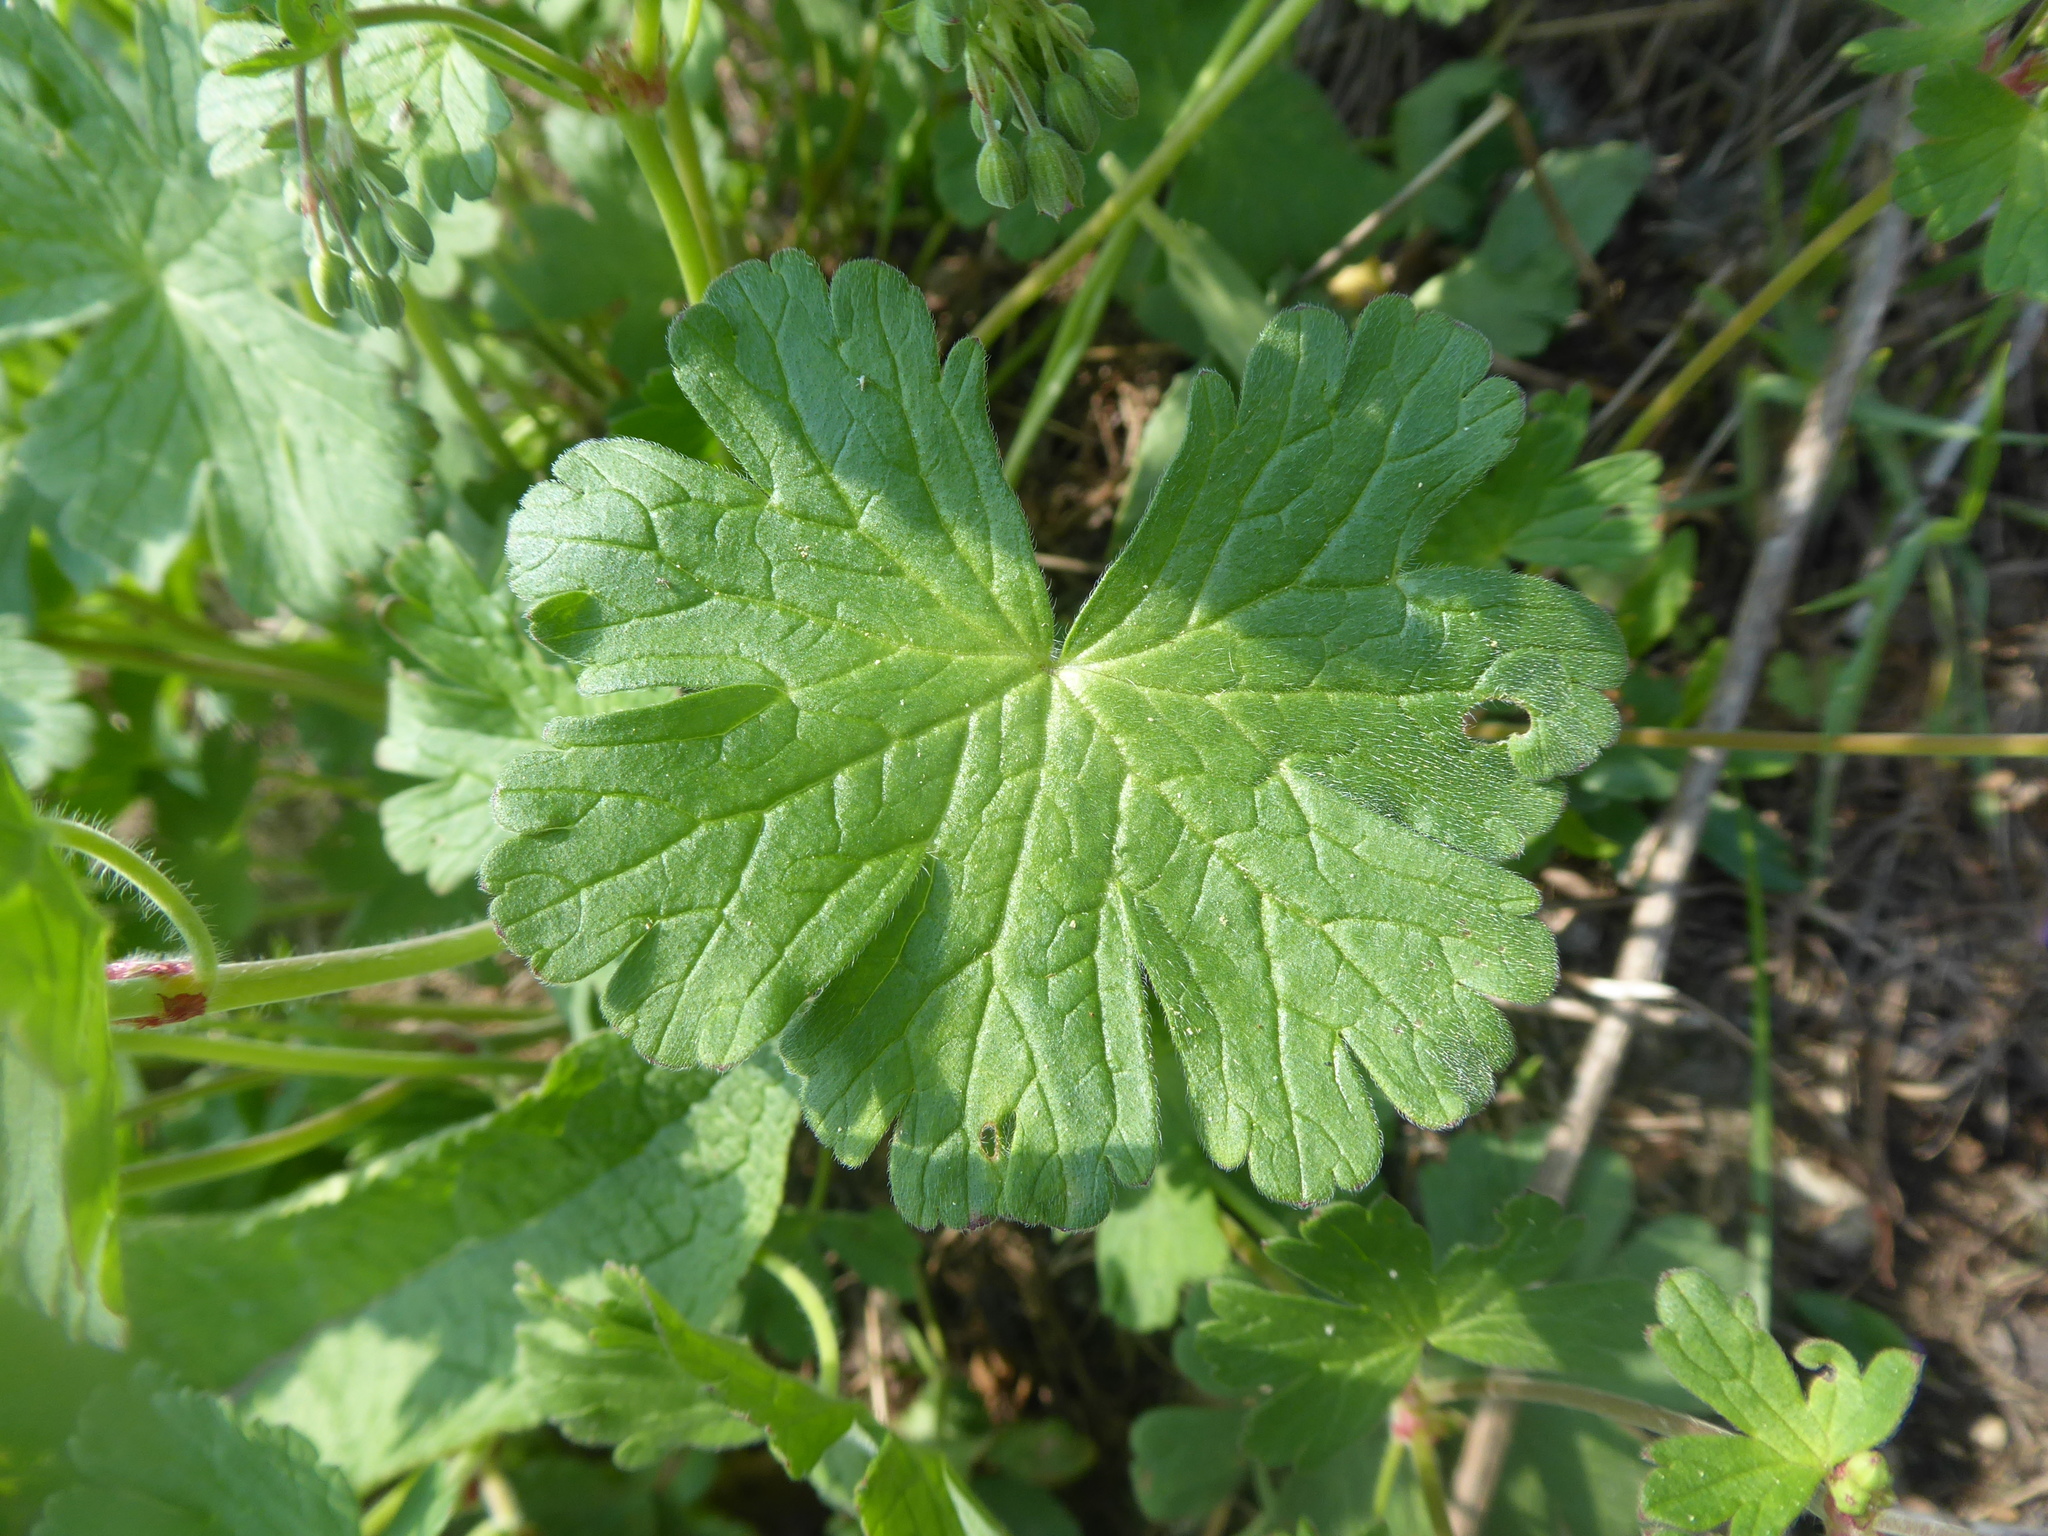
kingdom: Plantae
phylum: Tracheophyta
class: Magnoliopsida
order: Geraniales
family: Geraniaceae
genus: Geranium
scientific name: Geranium pyrenaicum
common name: Hedgerow crane's-bill
